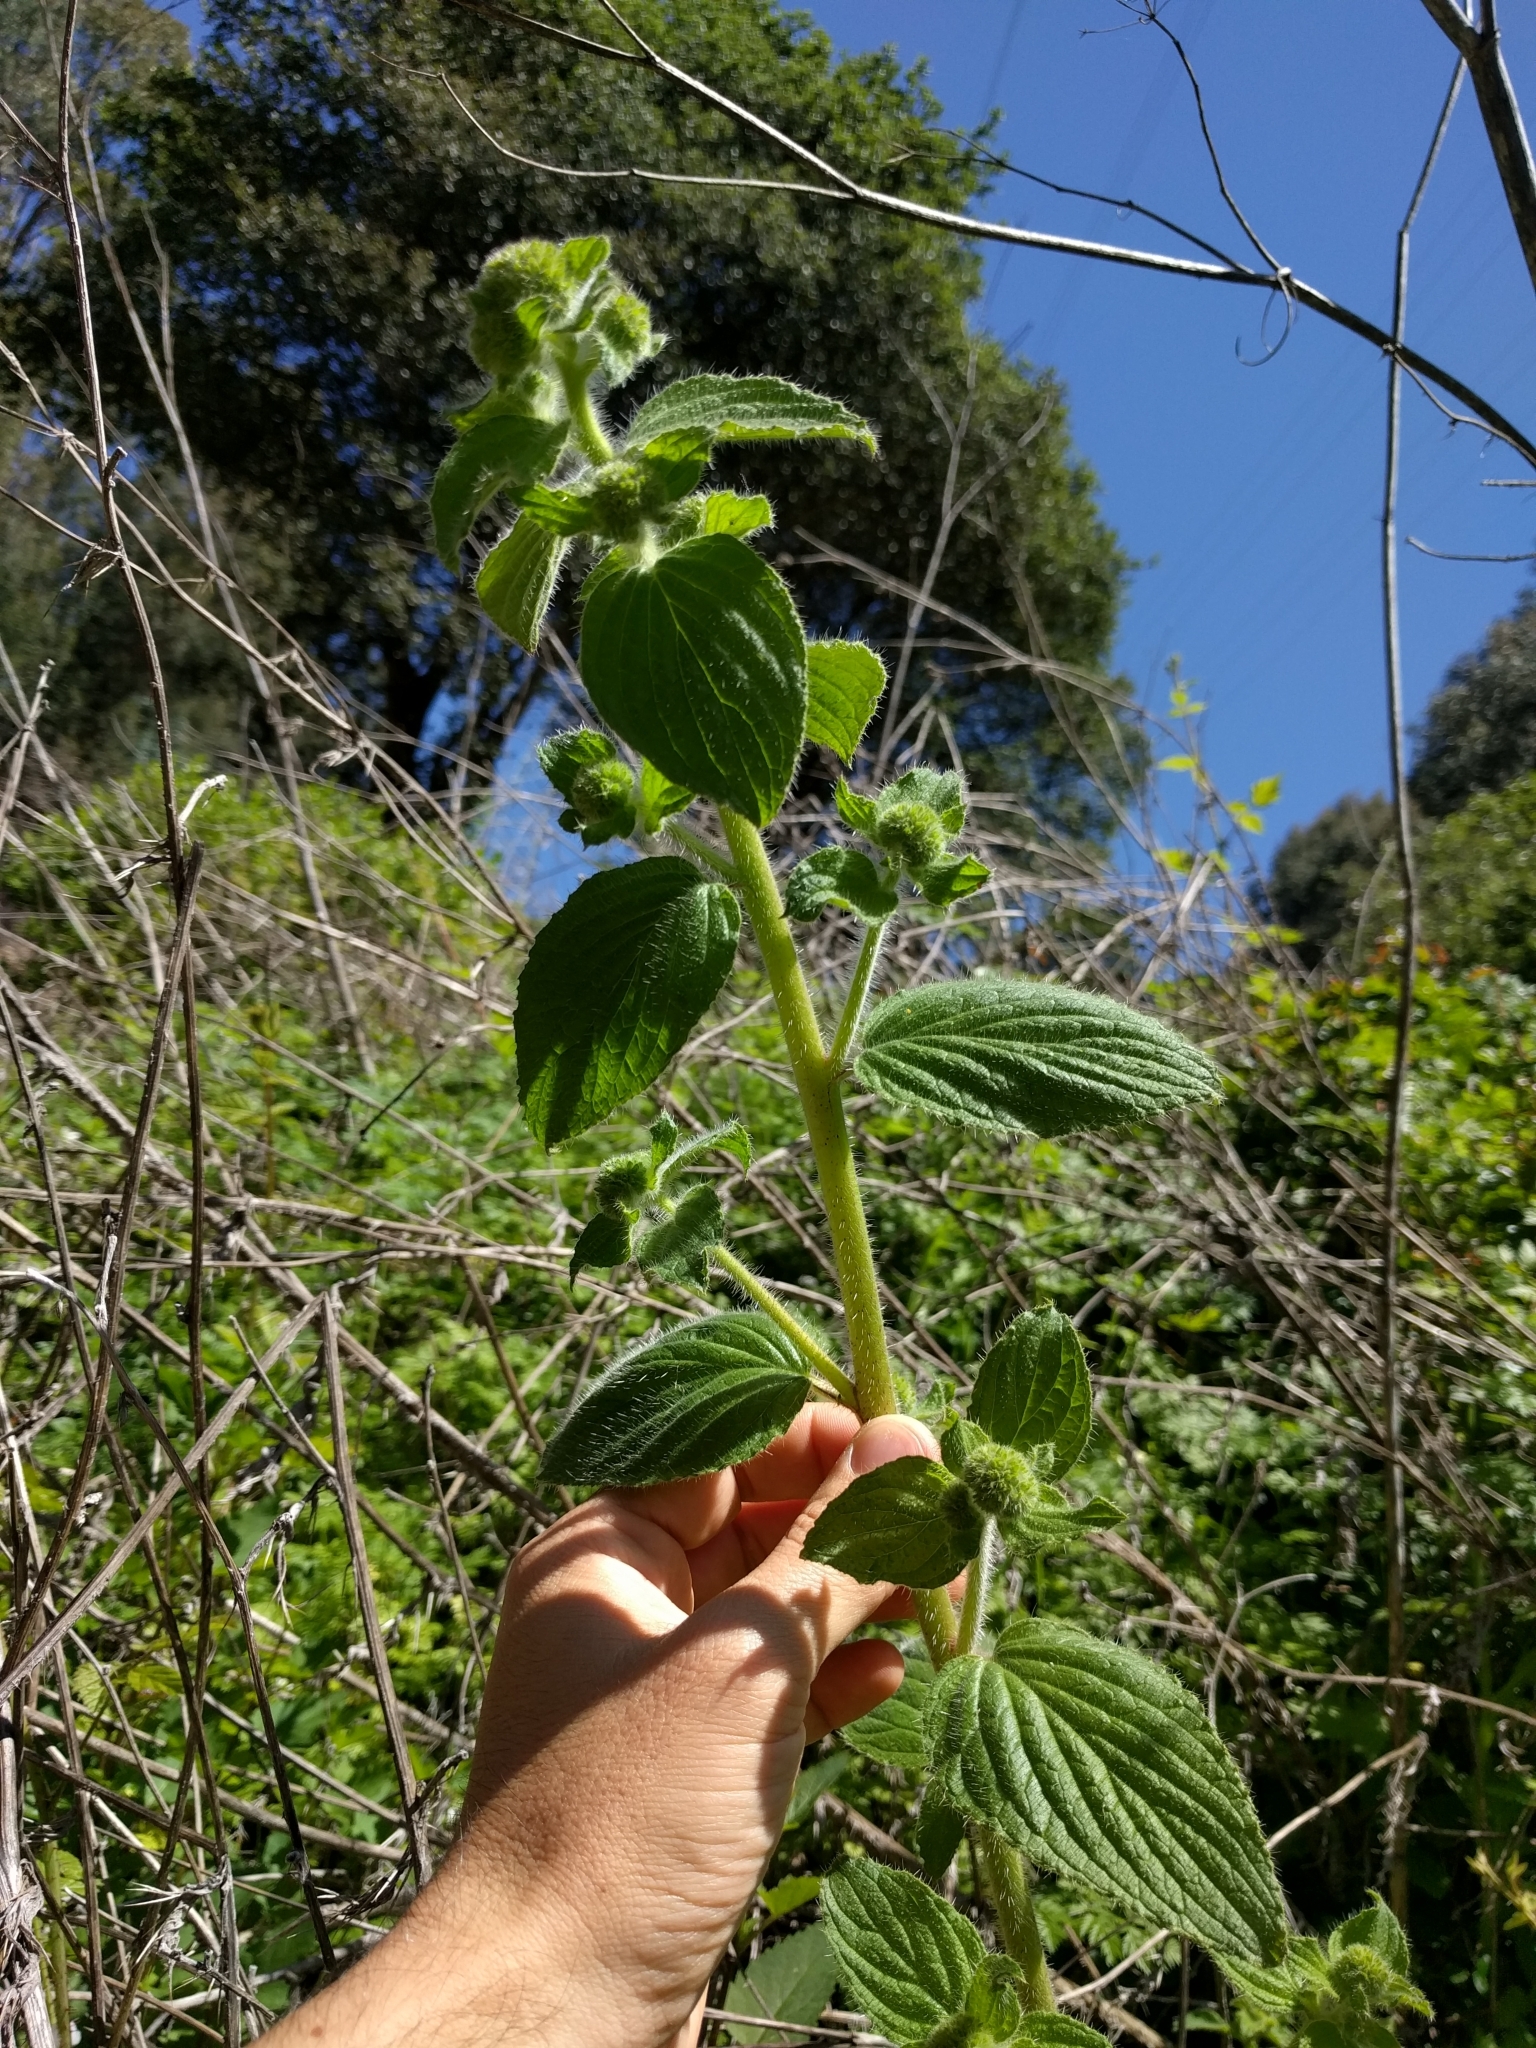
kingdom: Plantae
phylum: Tracheophyta
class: Magnoliopsida
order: Boraginales
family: Hydrophyllaceae
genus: Phacelia
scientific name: Phacelia nemoralis
